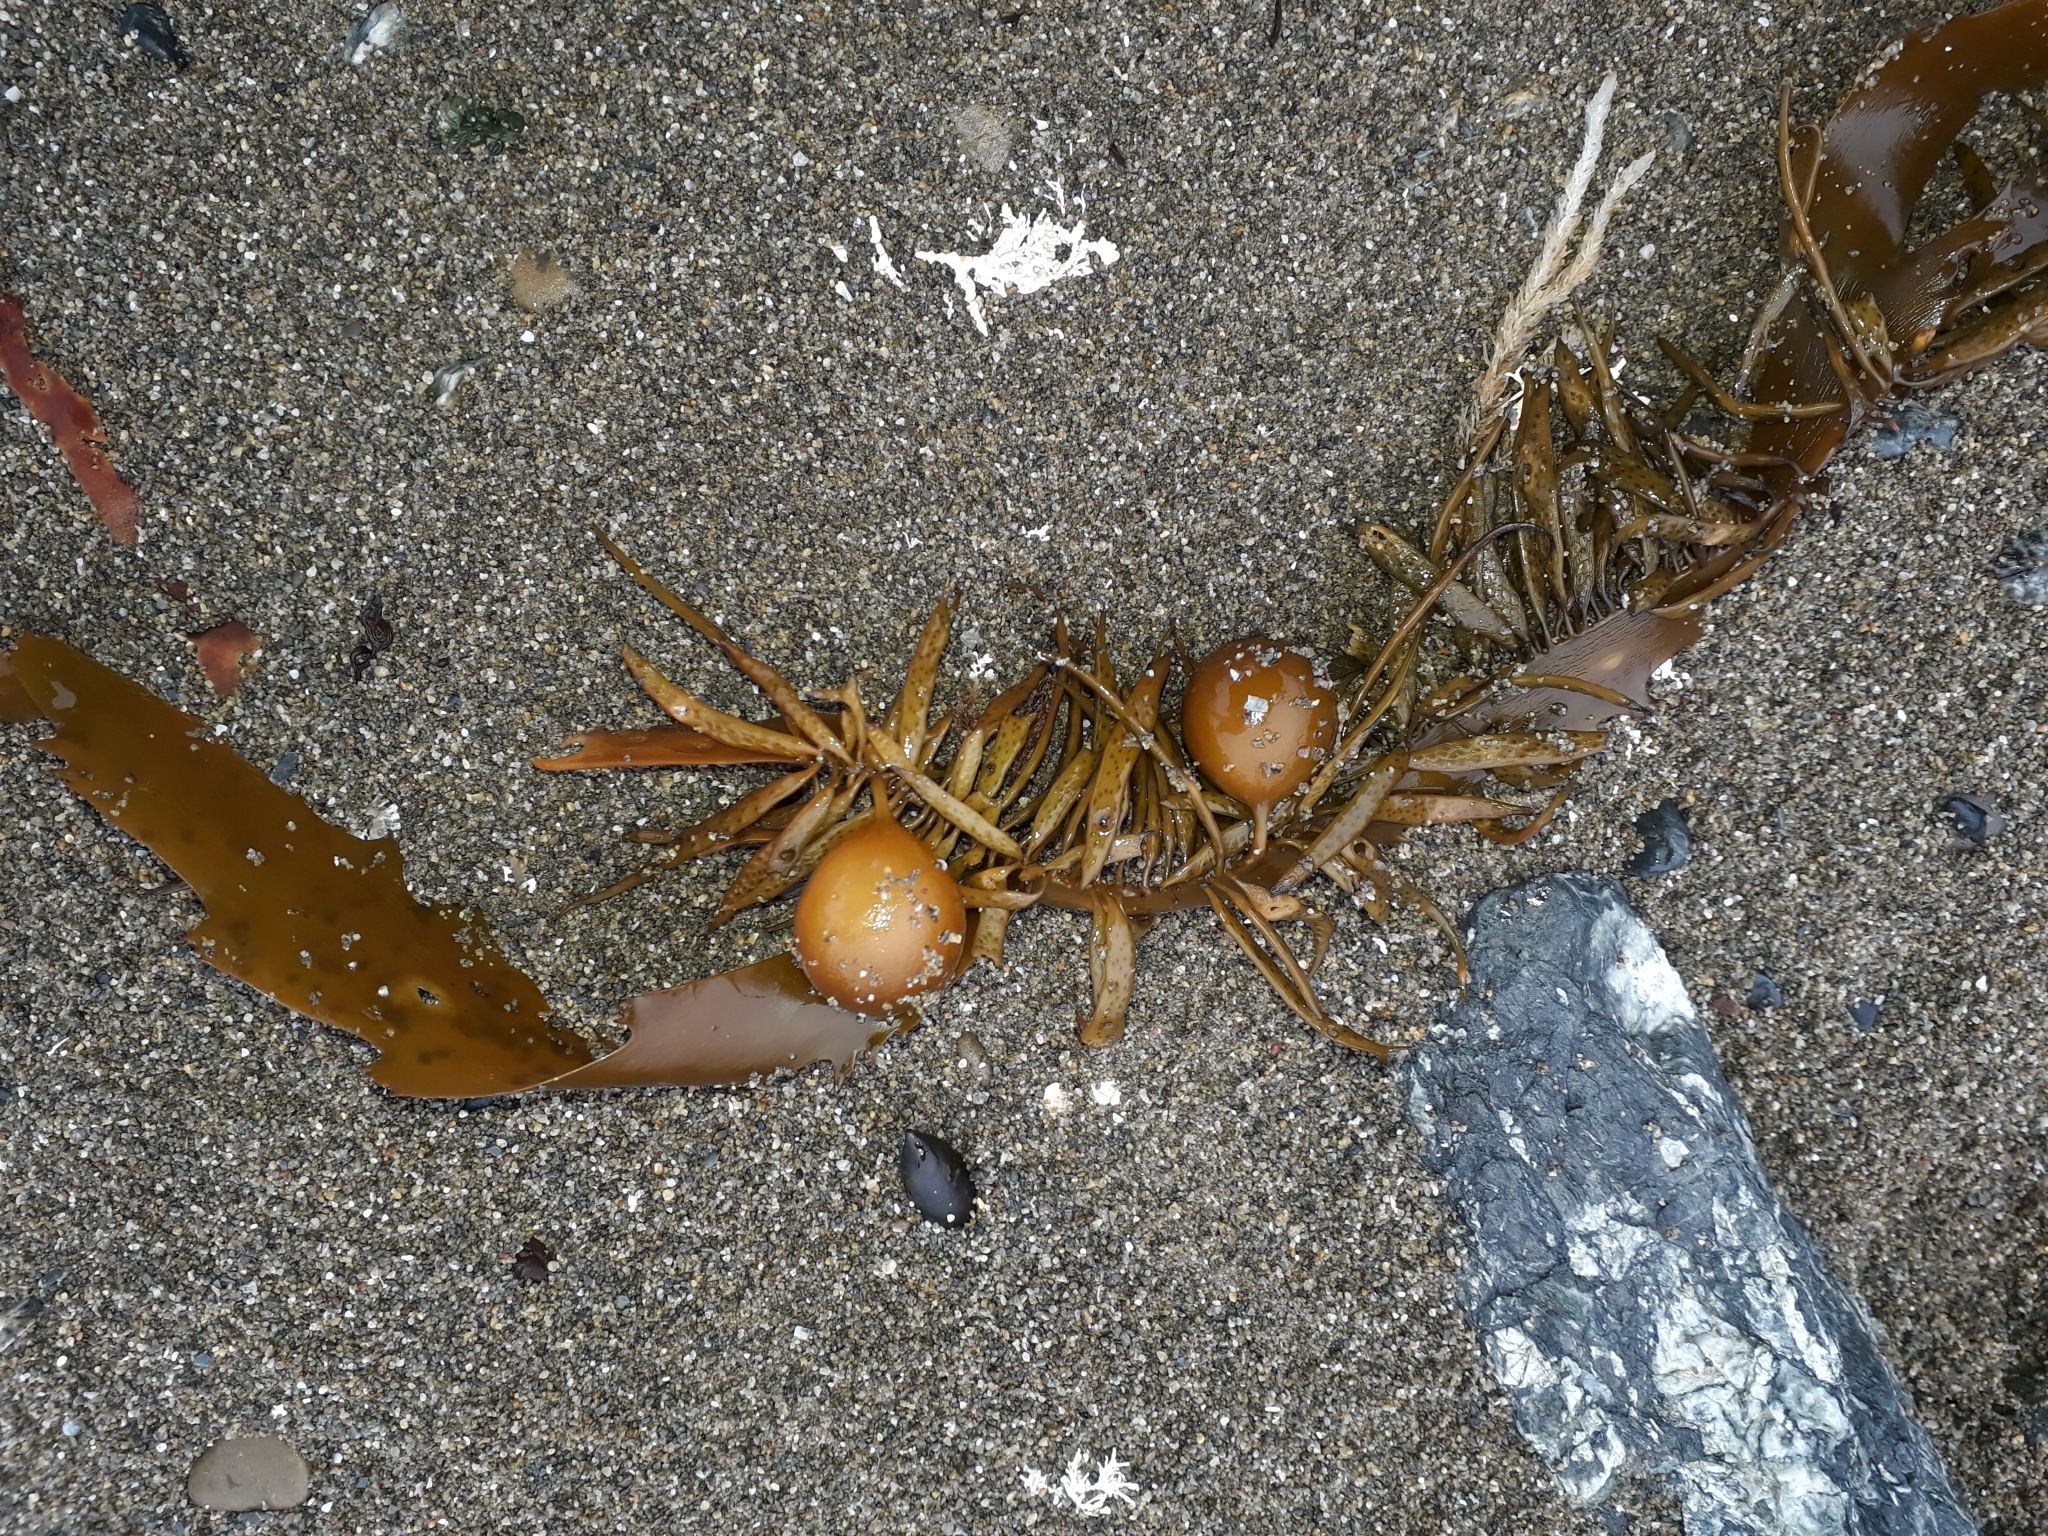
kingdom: Chromista
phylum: Ochrophyta
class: Phaeophyceae
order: Fucales
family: Seirococcaceae
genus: Marginariella
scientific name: Marginariella urvilliana
